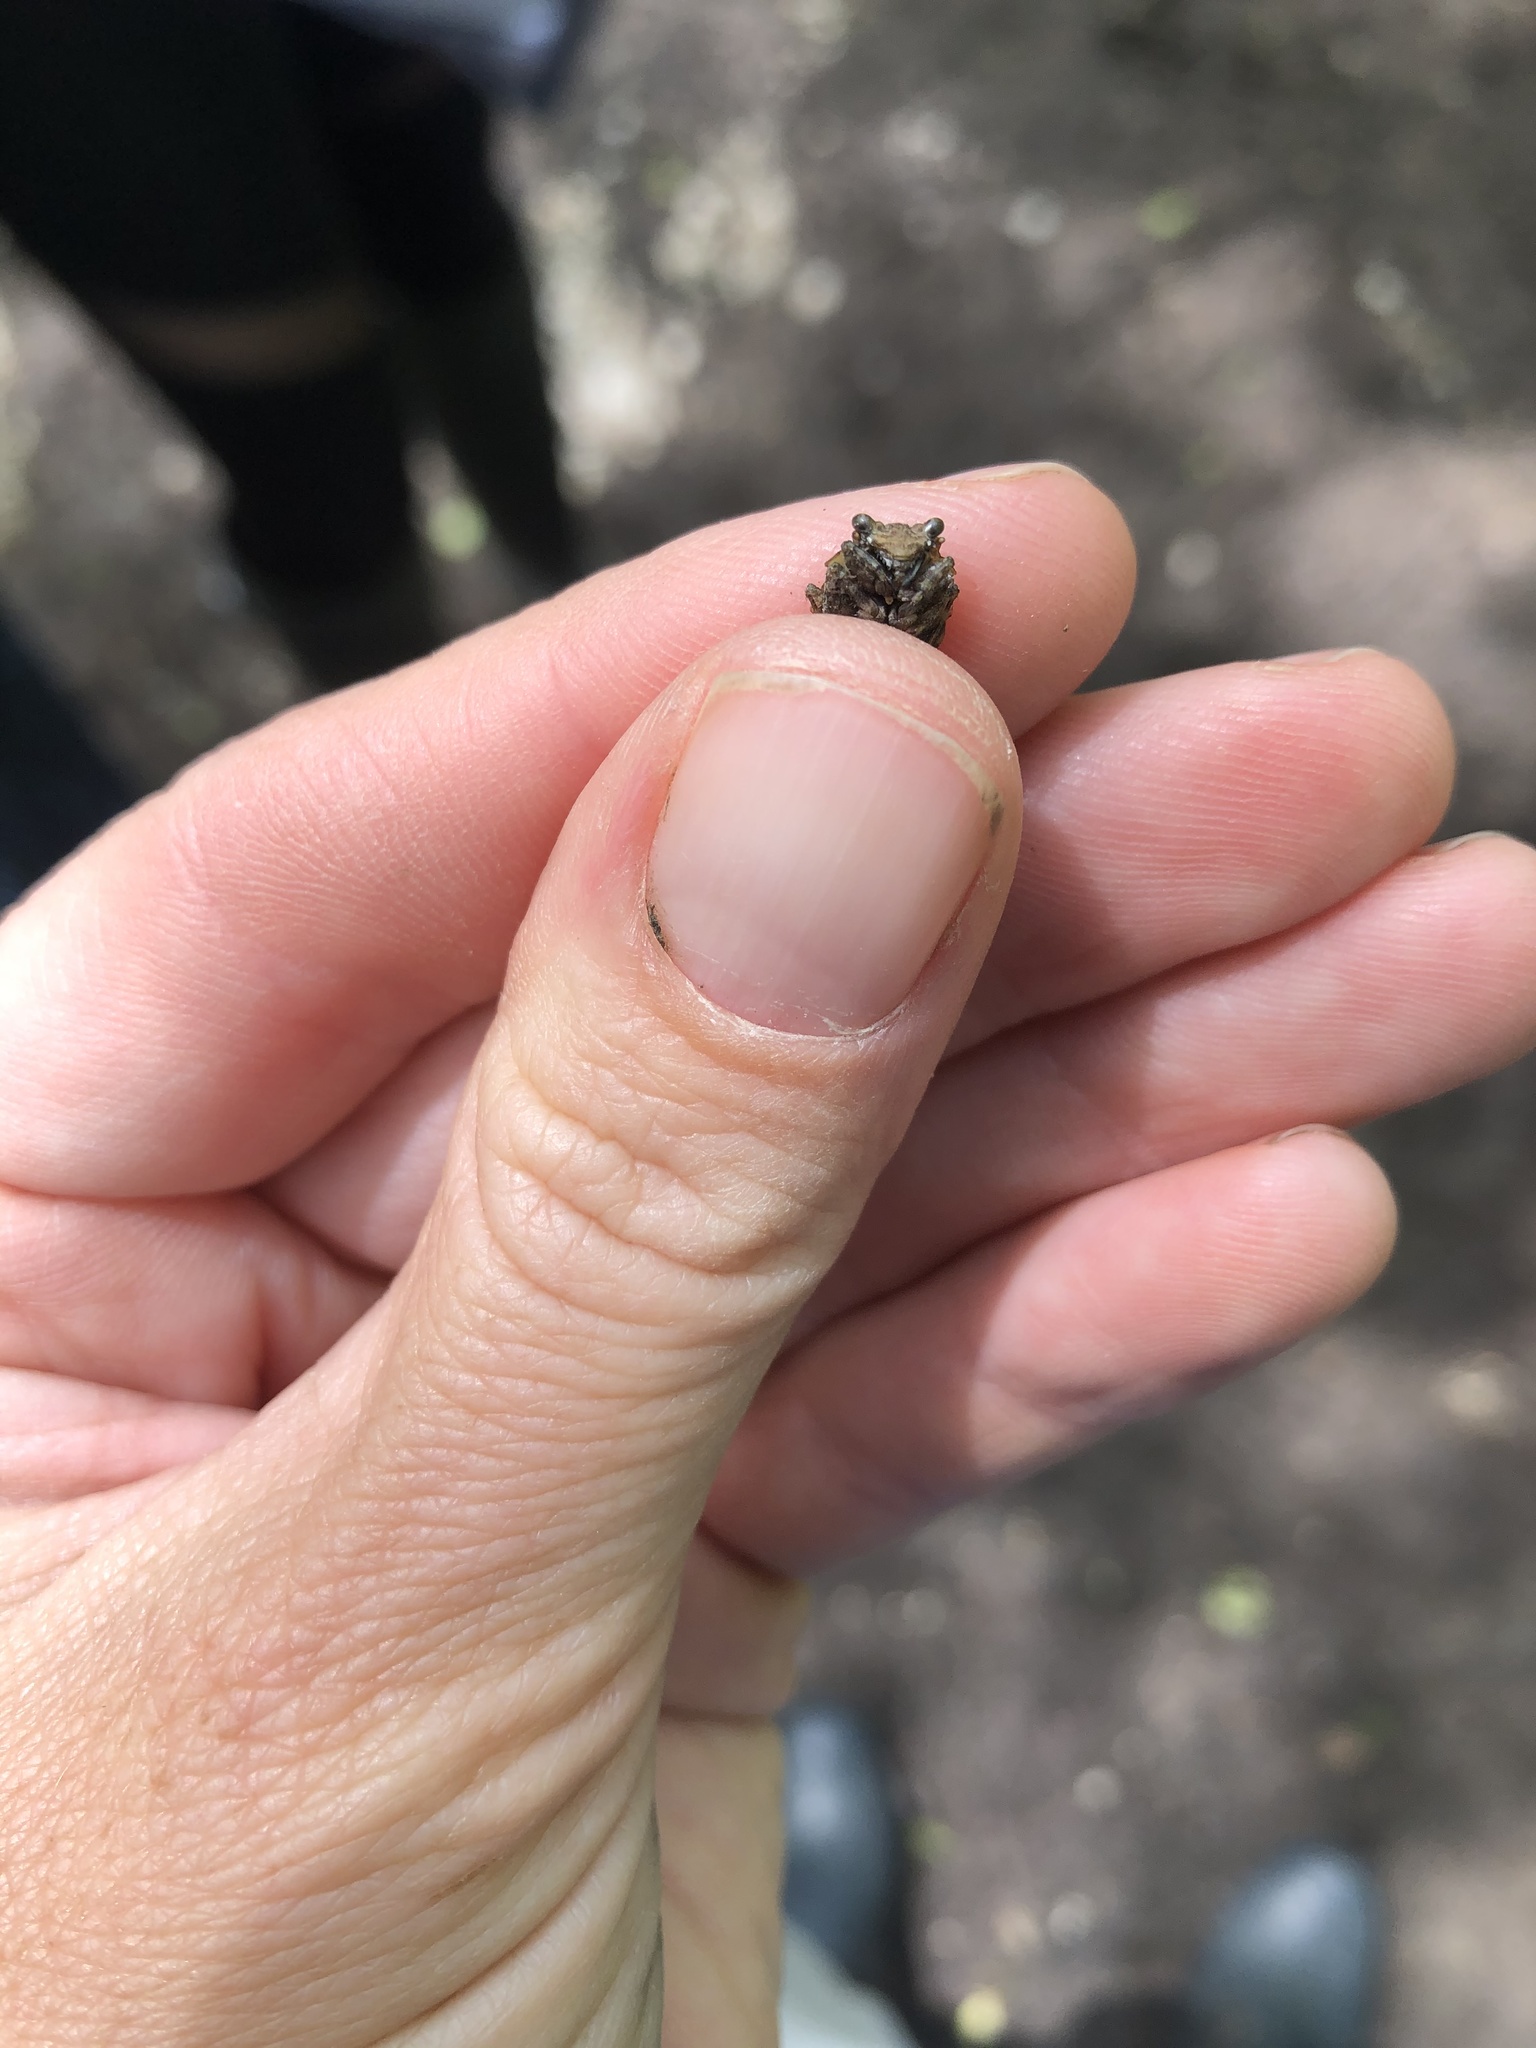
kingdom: Animalia
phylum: Arthropoda
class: Insecta
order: Hemiptera
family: Gelastocoridae
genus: Gelastocoris
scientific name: Gelastocoris oculatus
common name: Toad bug
